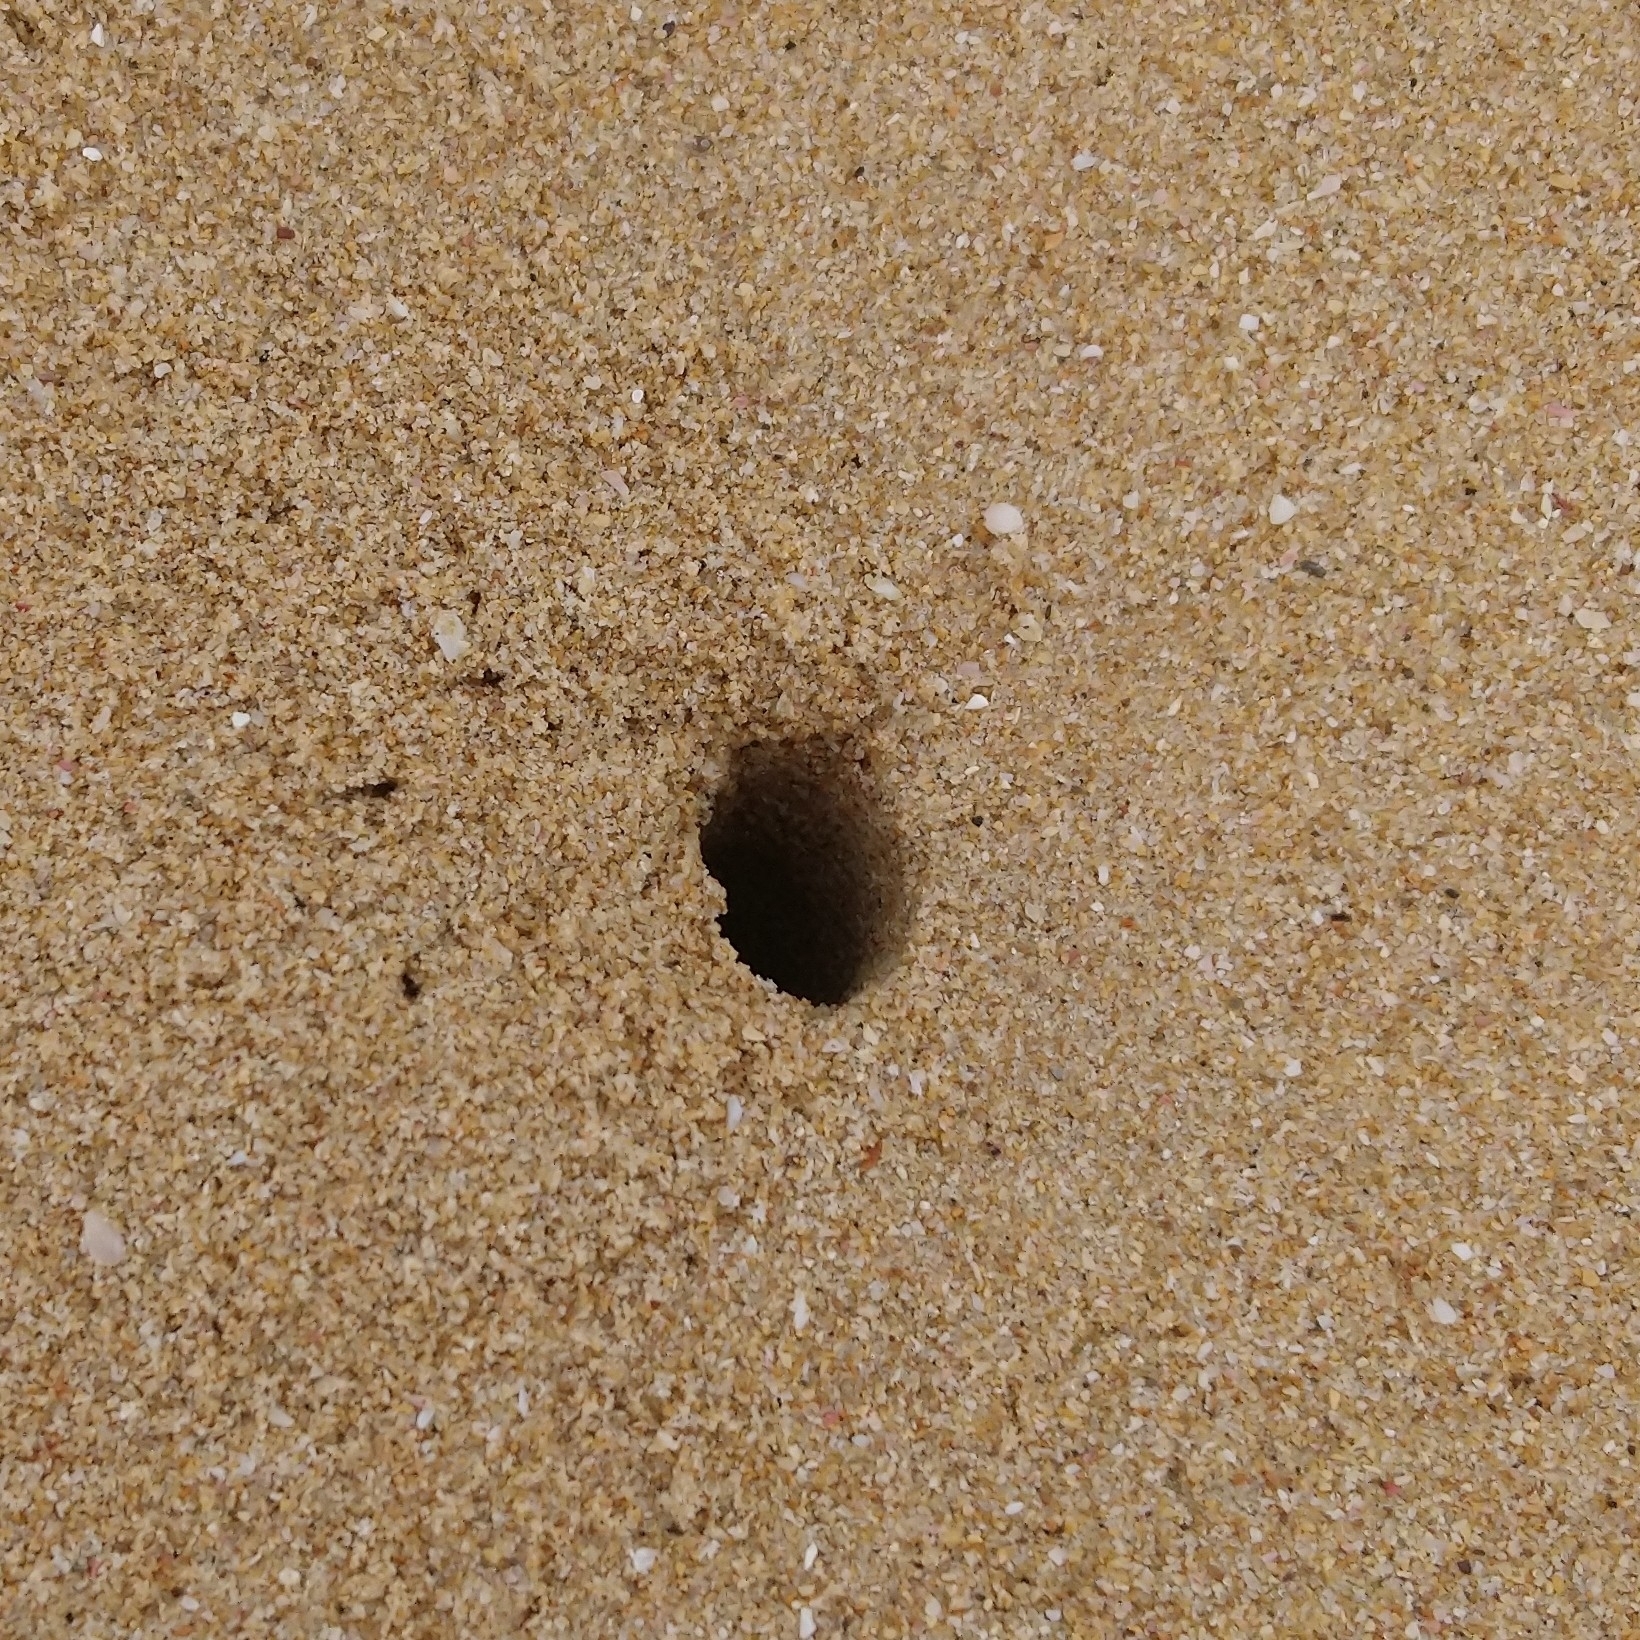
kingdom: Animalia
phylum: Arthropoda
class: Malacostraca
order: Decapoda
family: Ocypodidae
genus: Ocypode
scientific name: Ocypode
